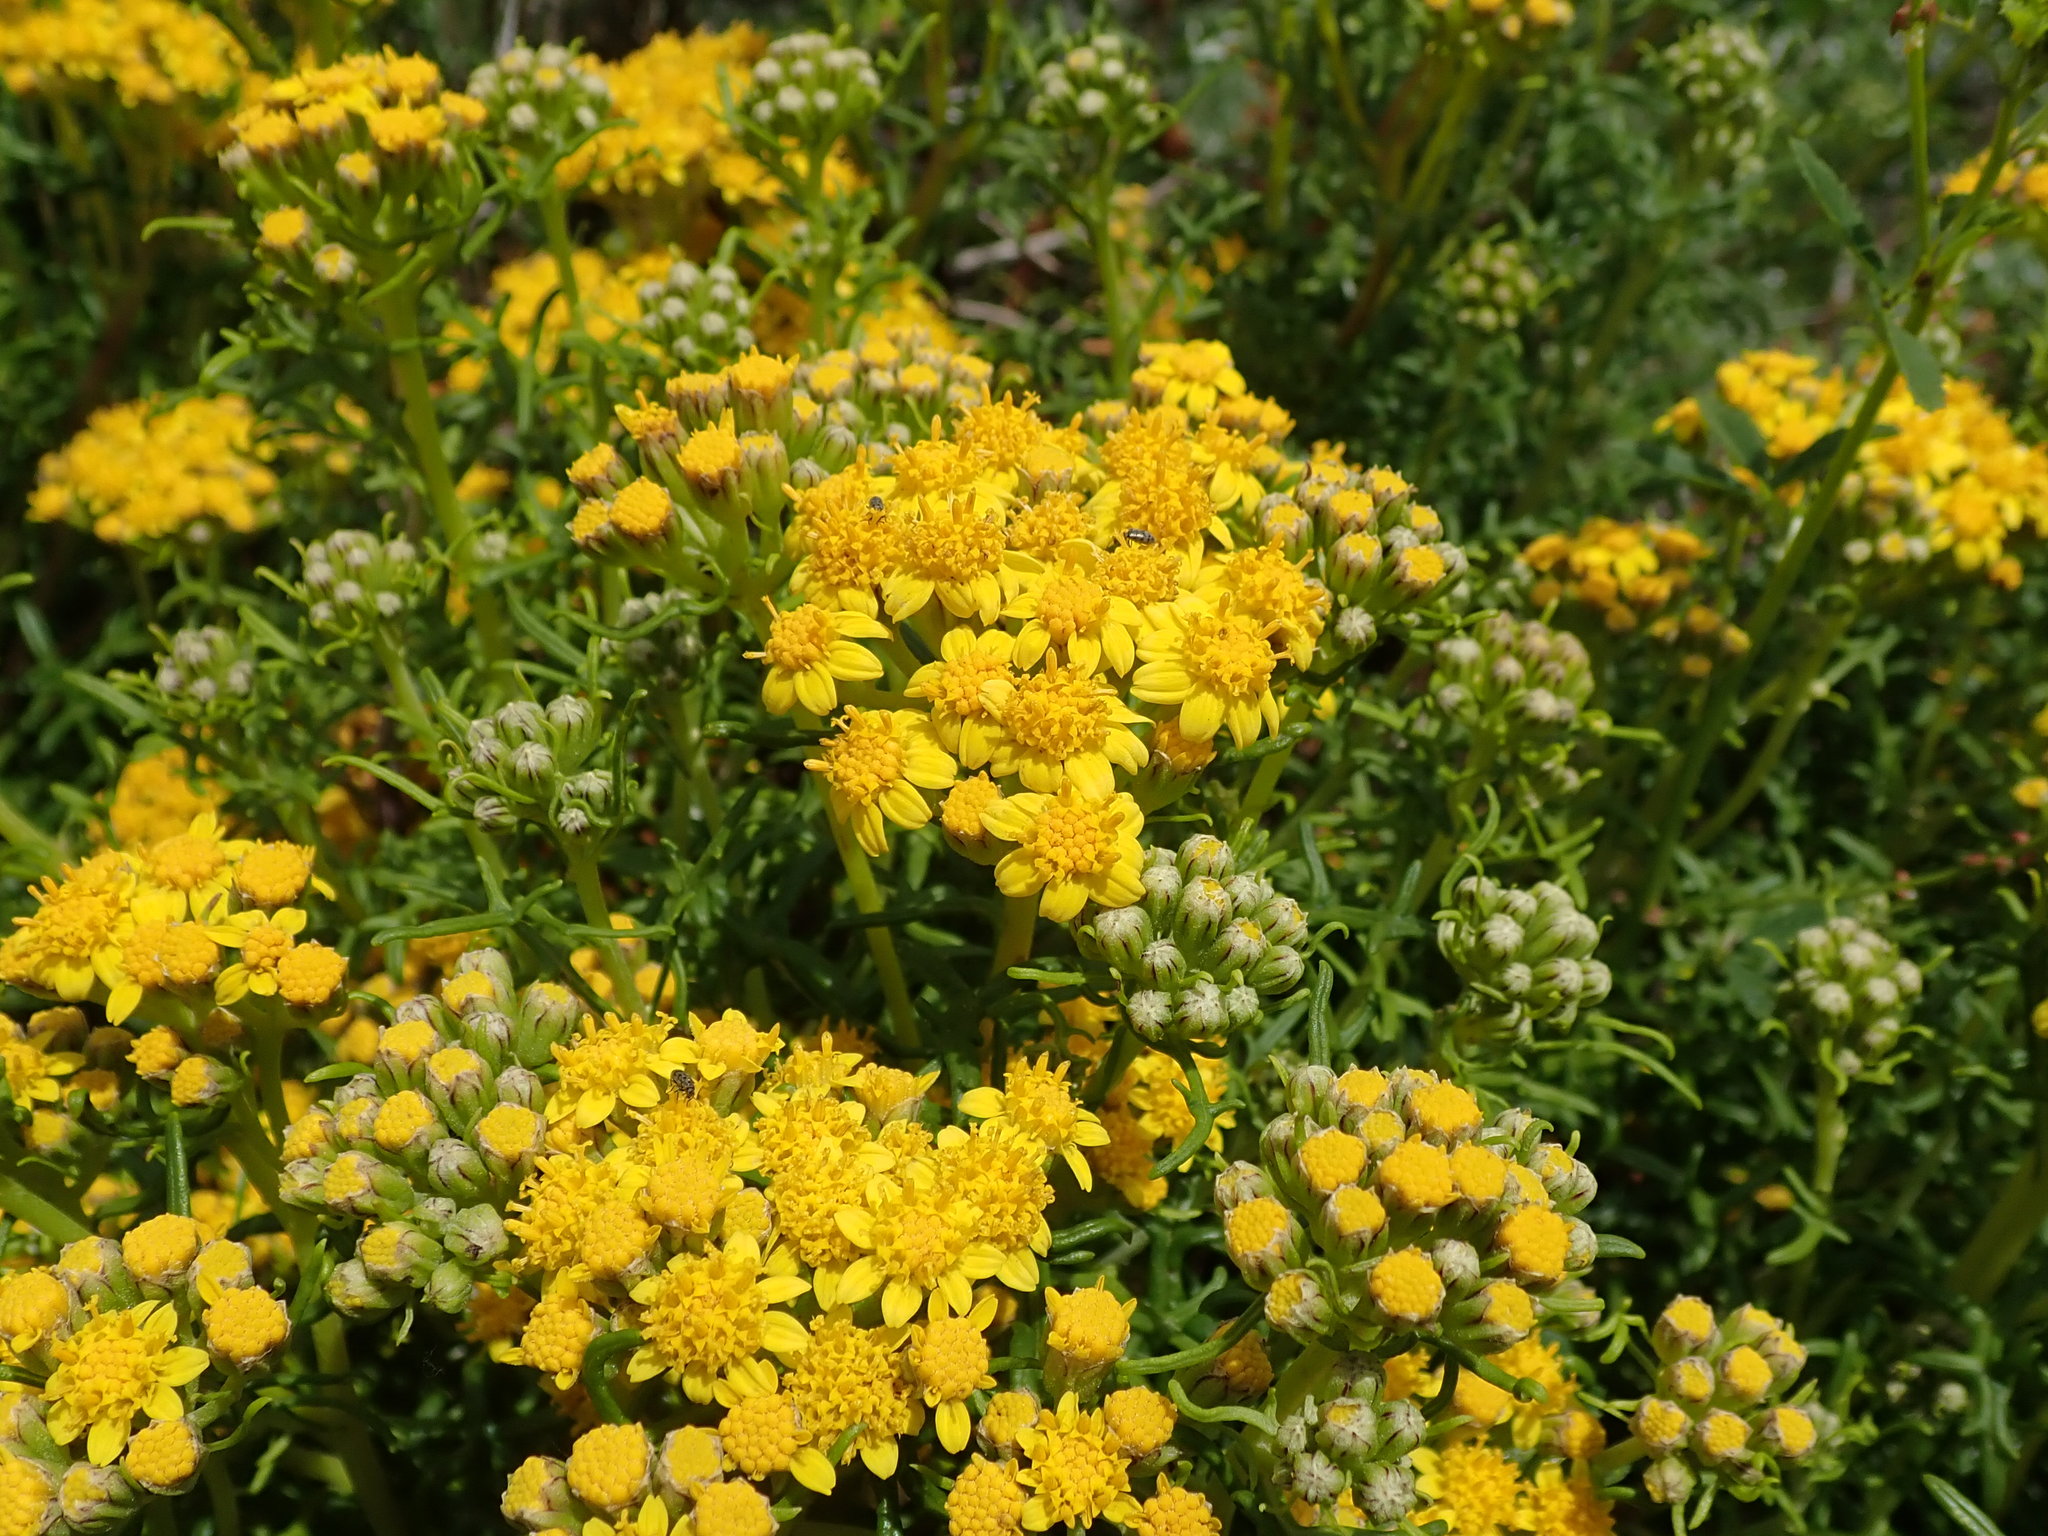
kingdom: Plantae
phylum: Tracheophyta
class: Magnoliopsida
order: Asterales
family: Asteraceae
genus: Eriophyllum
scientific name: Eriophyllum staechadifolium
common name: Lizardtail
